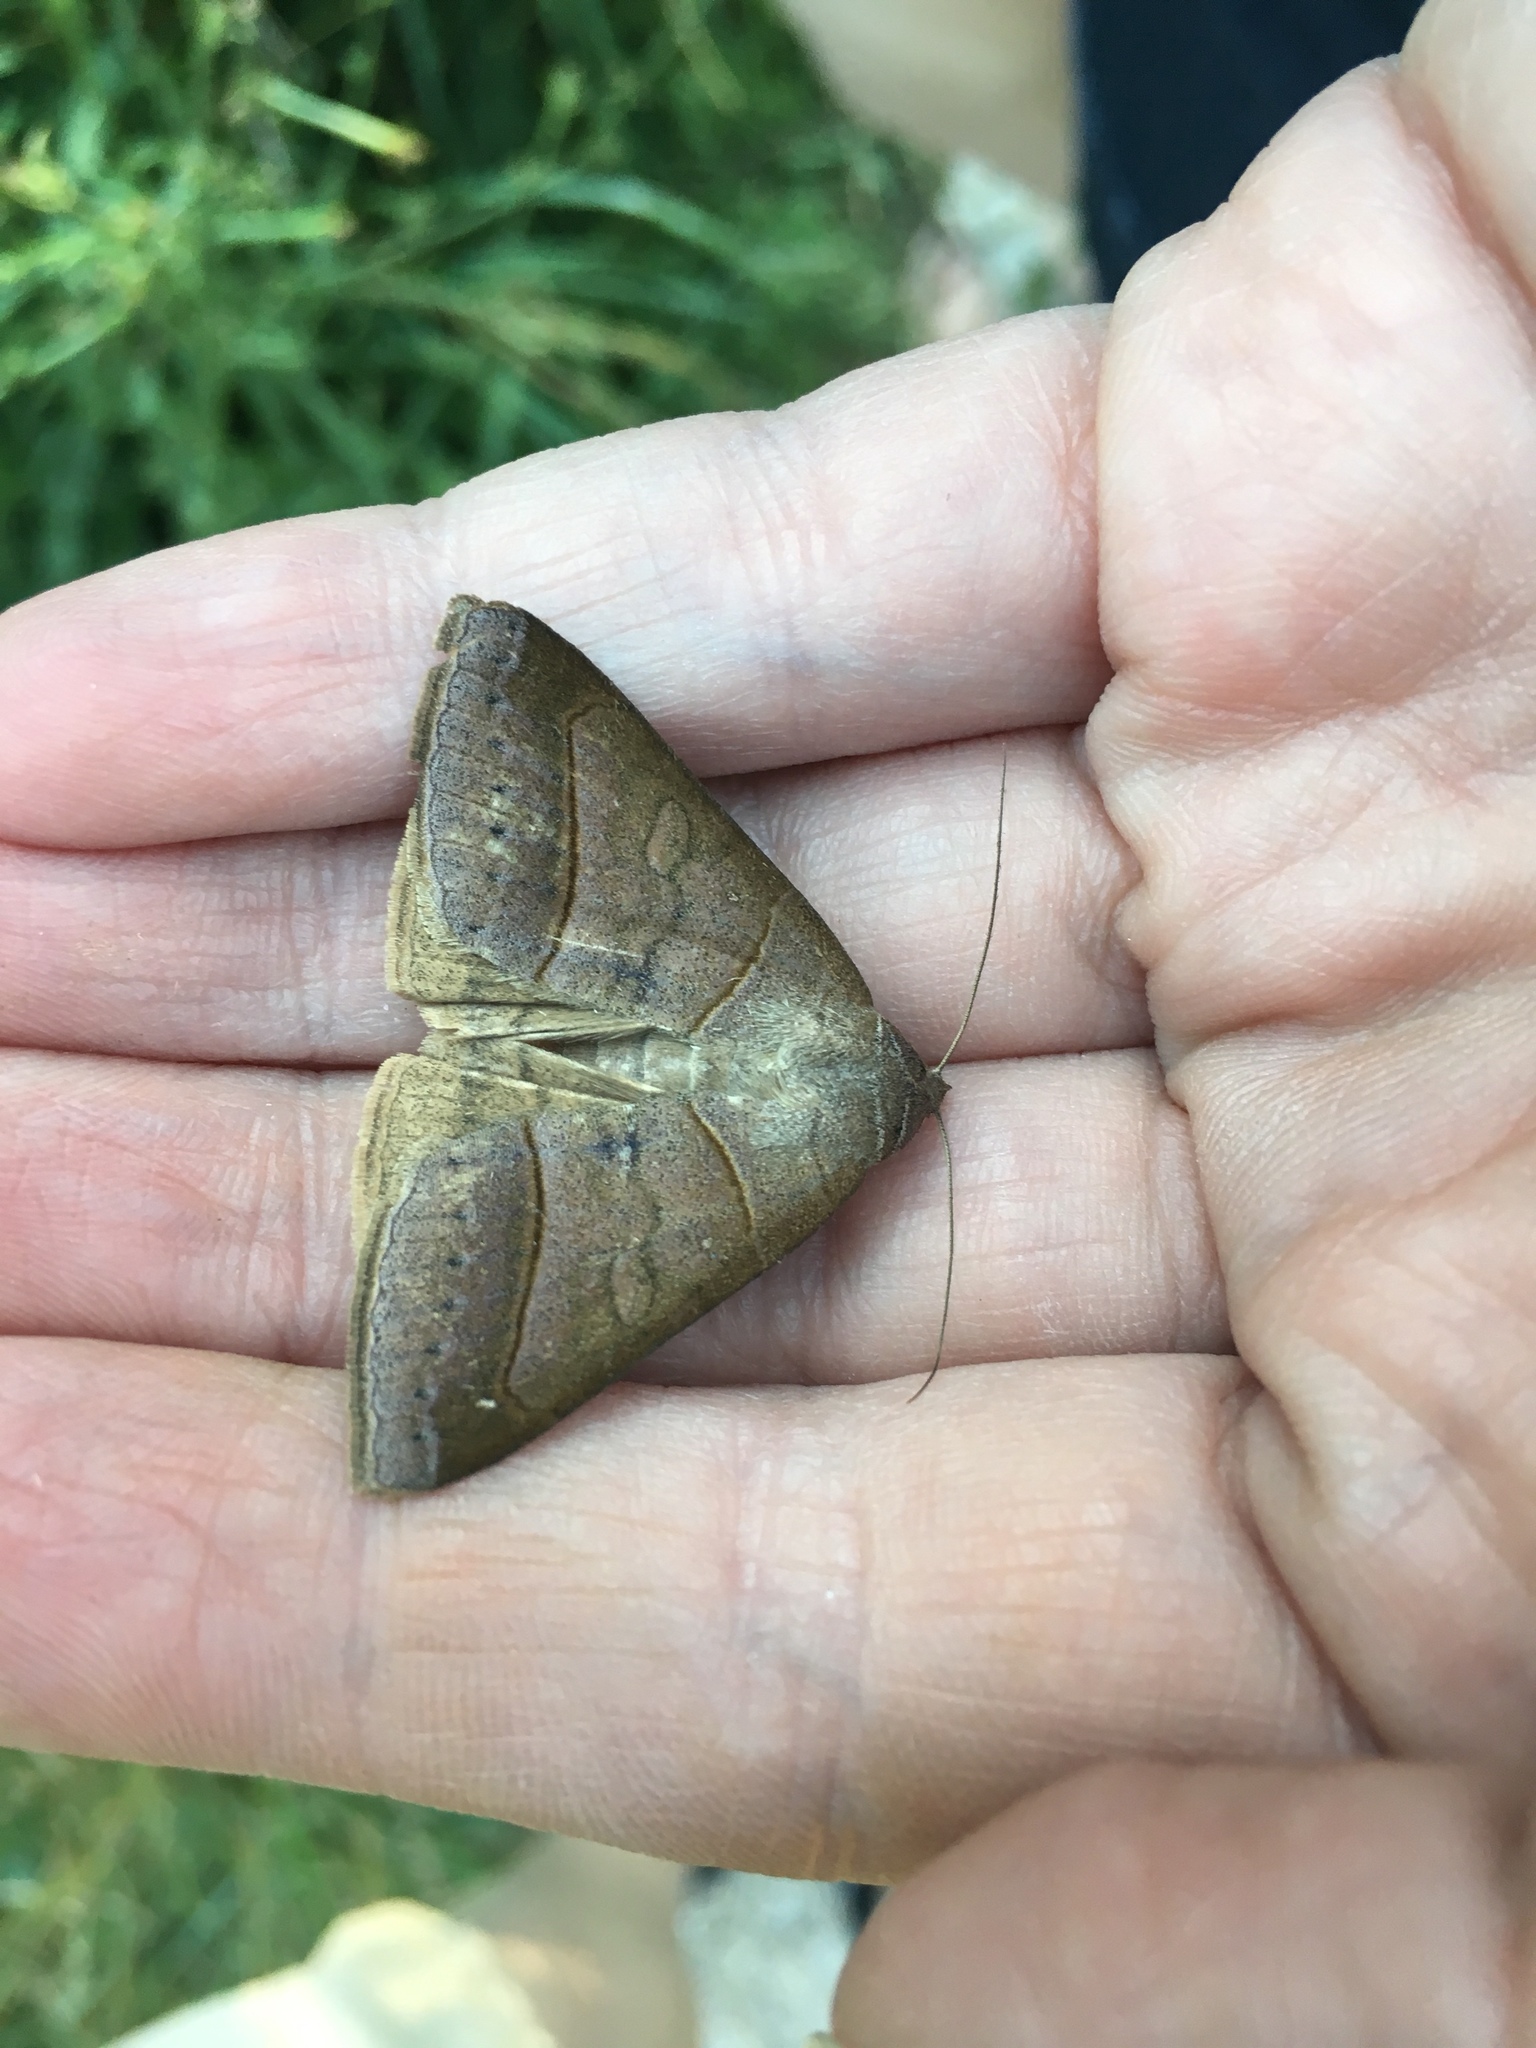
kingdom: Animalia
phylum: Arthropoda
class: Insecta
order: Lepidoptera
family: Erebidae
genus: Mocis
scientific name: Mocis texana
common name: Texas mocis moth
